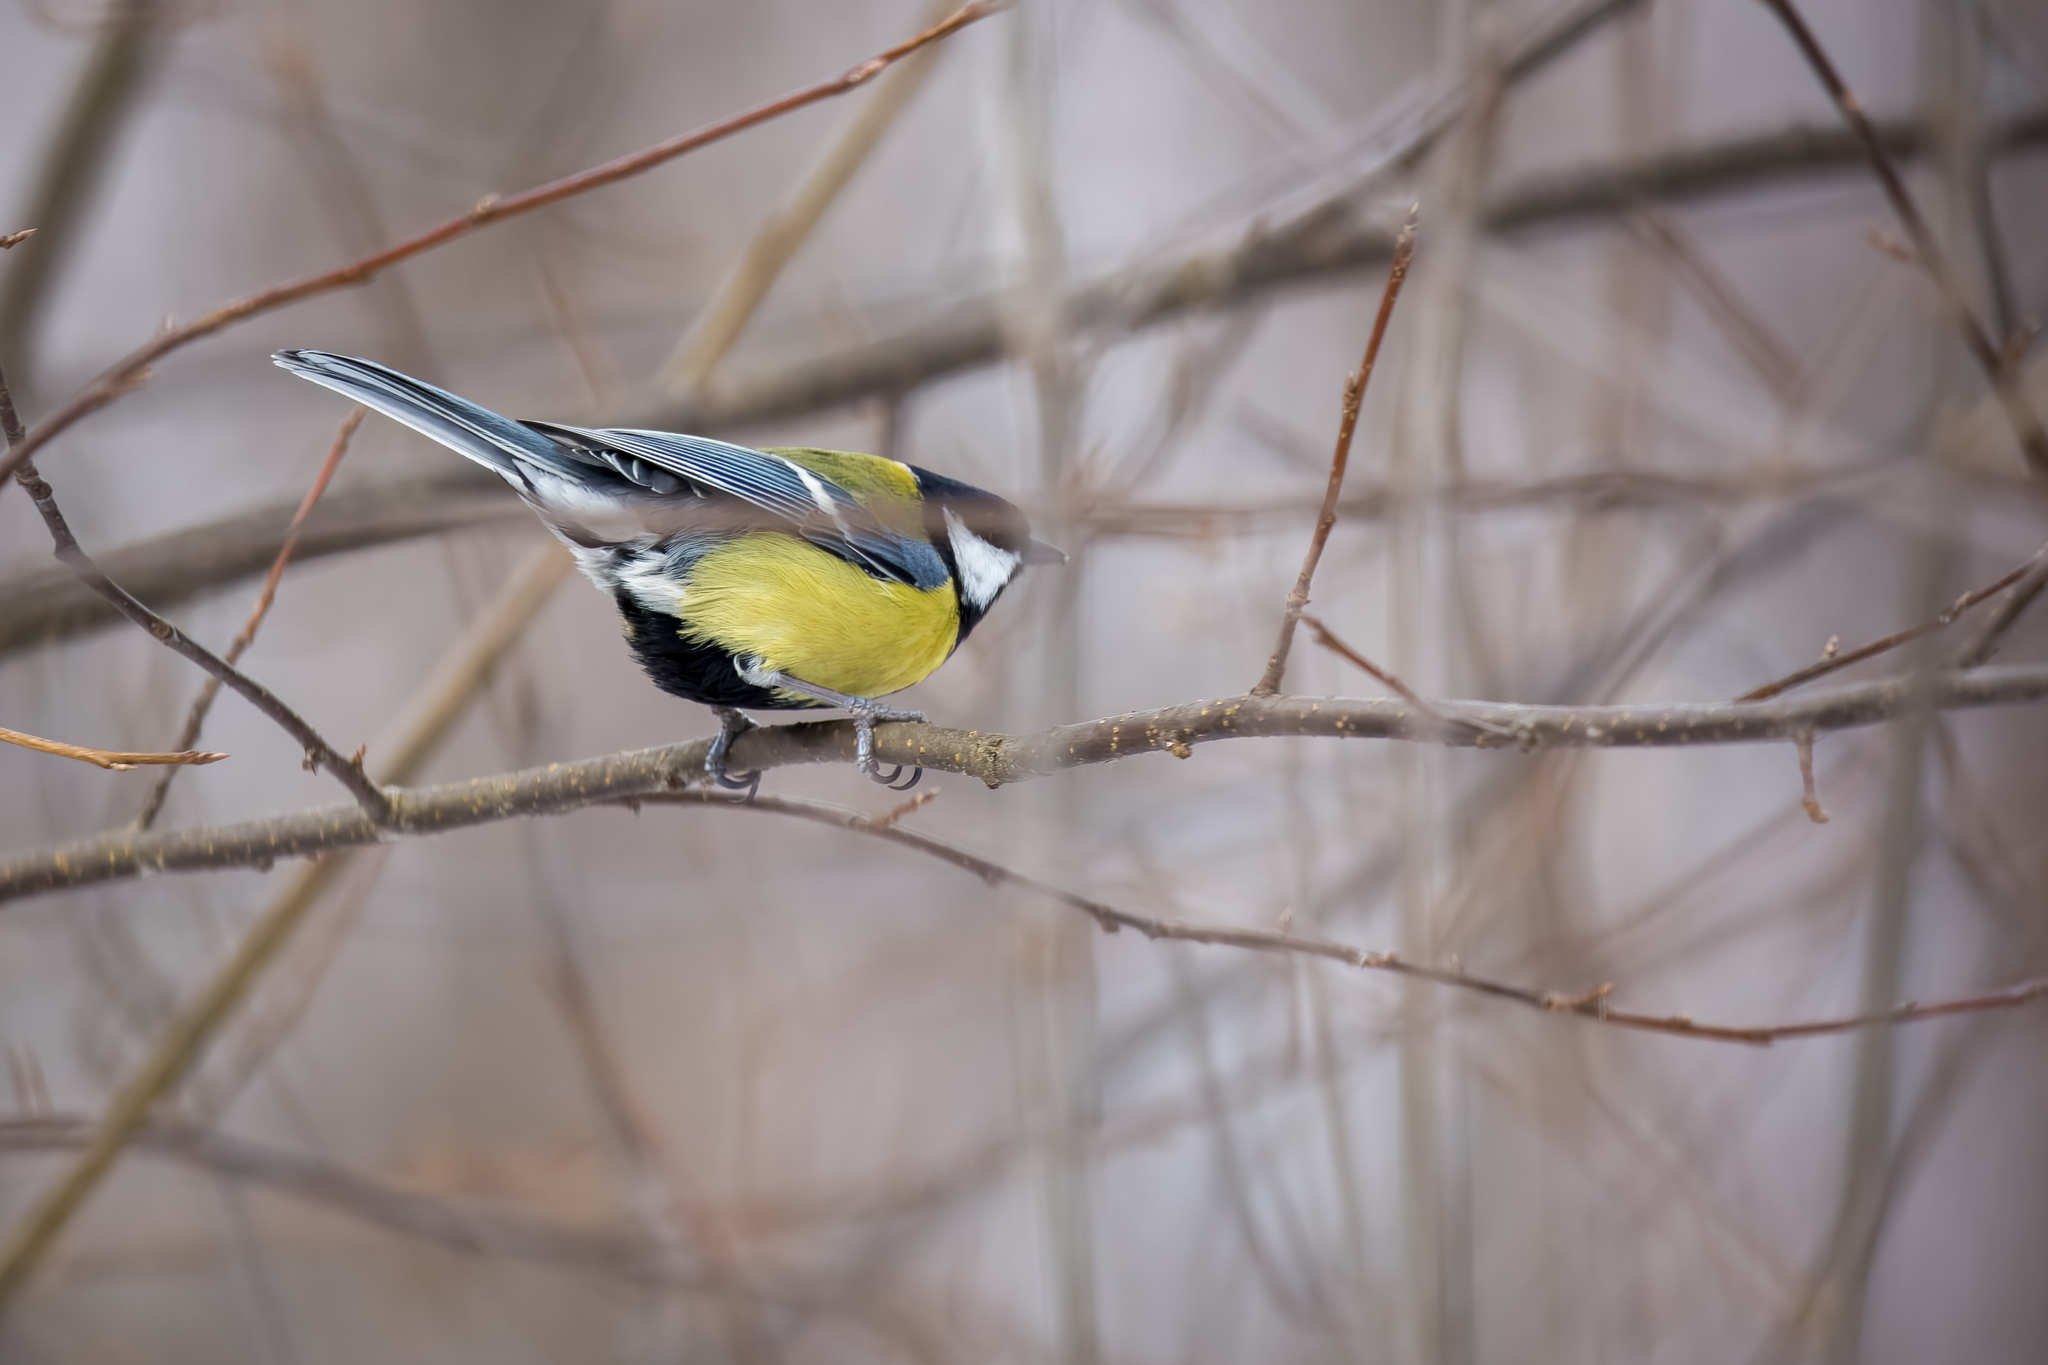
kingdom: Animalia
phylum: Chordata
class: Aves
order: Passeriformes
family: Paridae
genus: Parus
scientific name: Parus major
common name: Great tit
